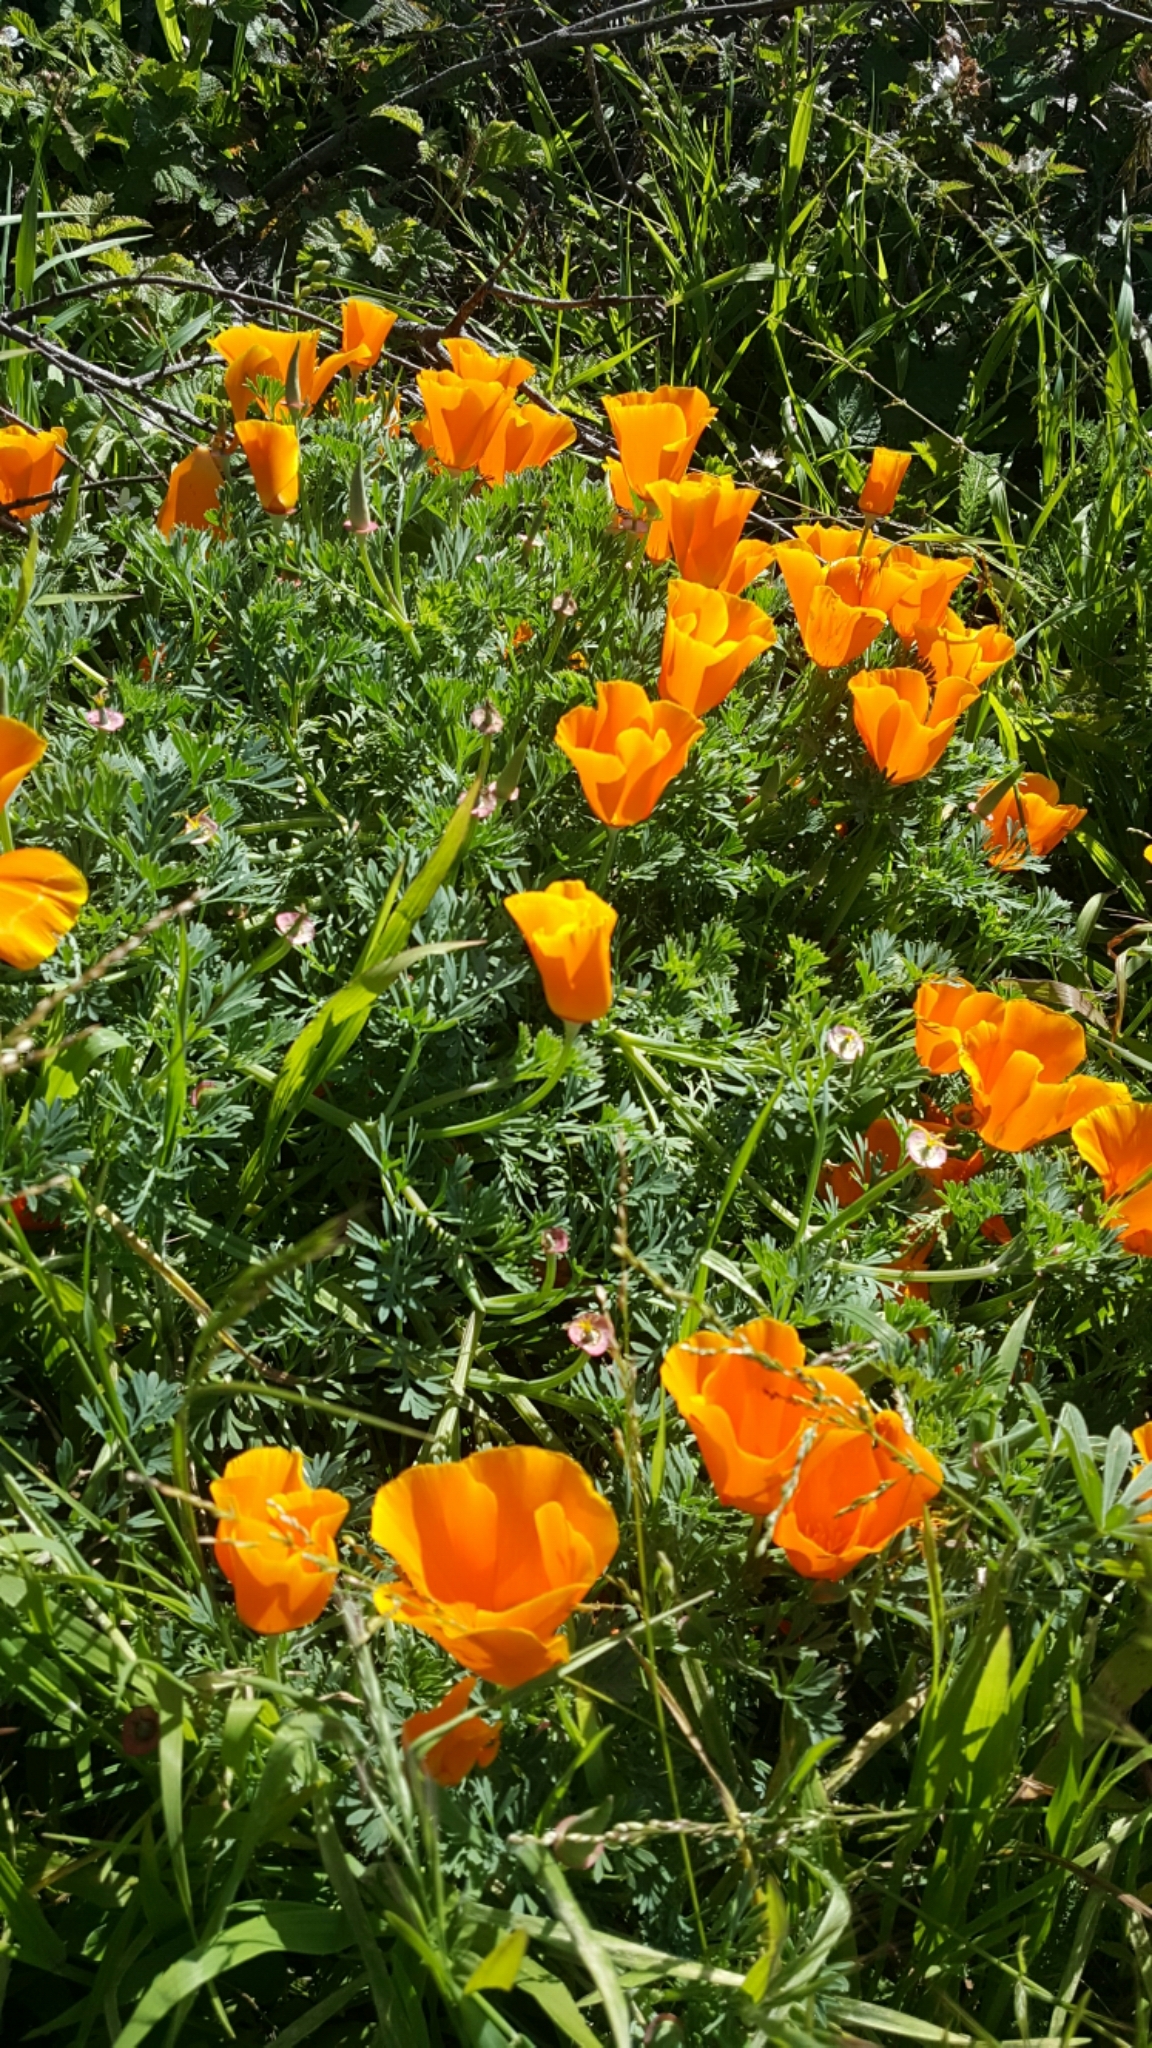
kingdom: Plantae
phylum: Tracheophyta
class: Magnoliopsida
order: Ranunculales
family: Papaveraceae
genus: Eschscholzia
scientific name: Eschscholzia californica
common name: California poppy
